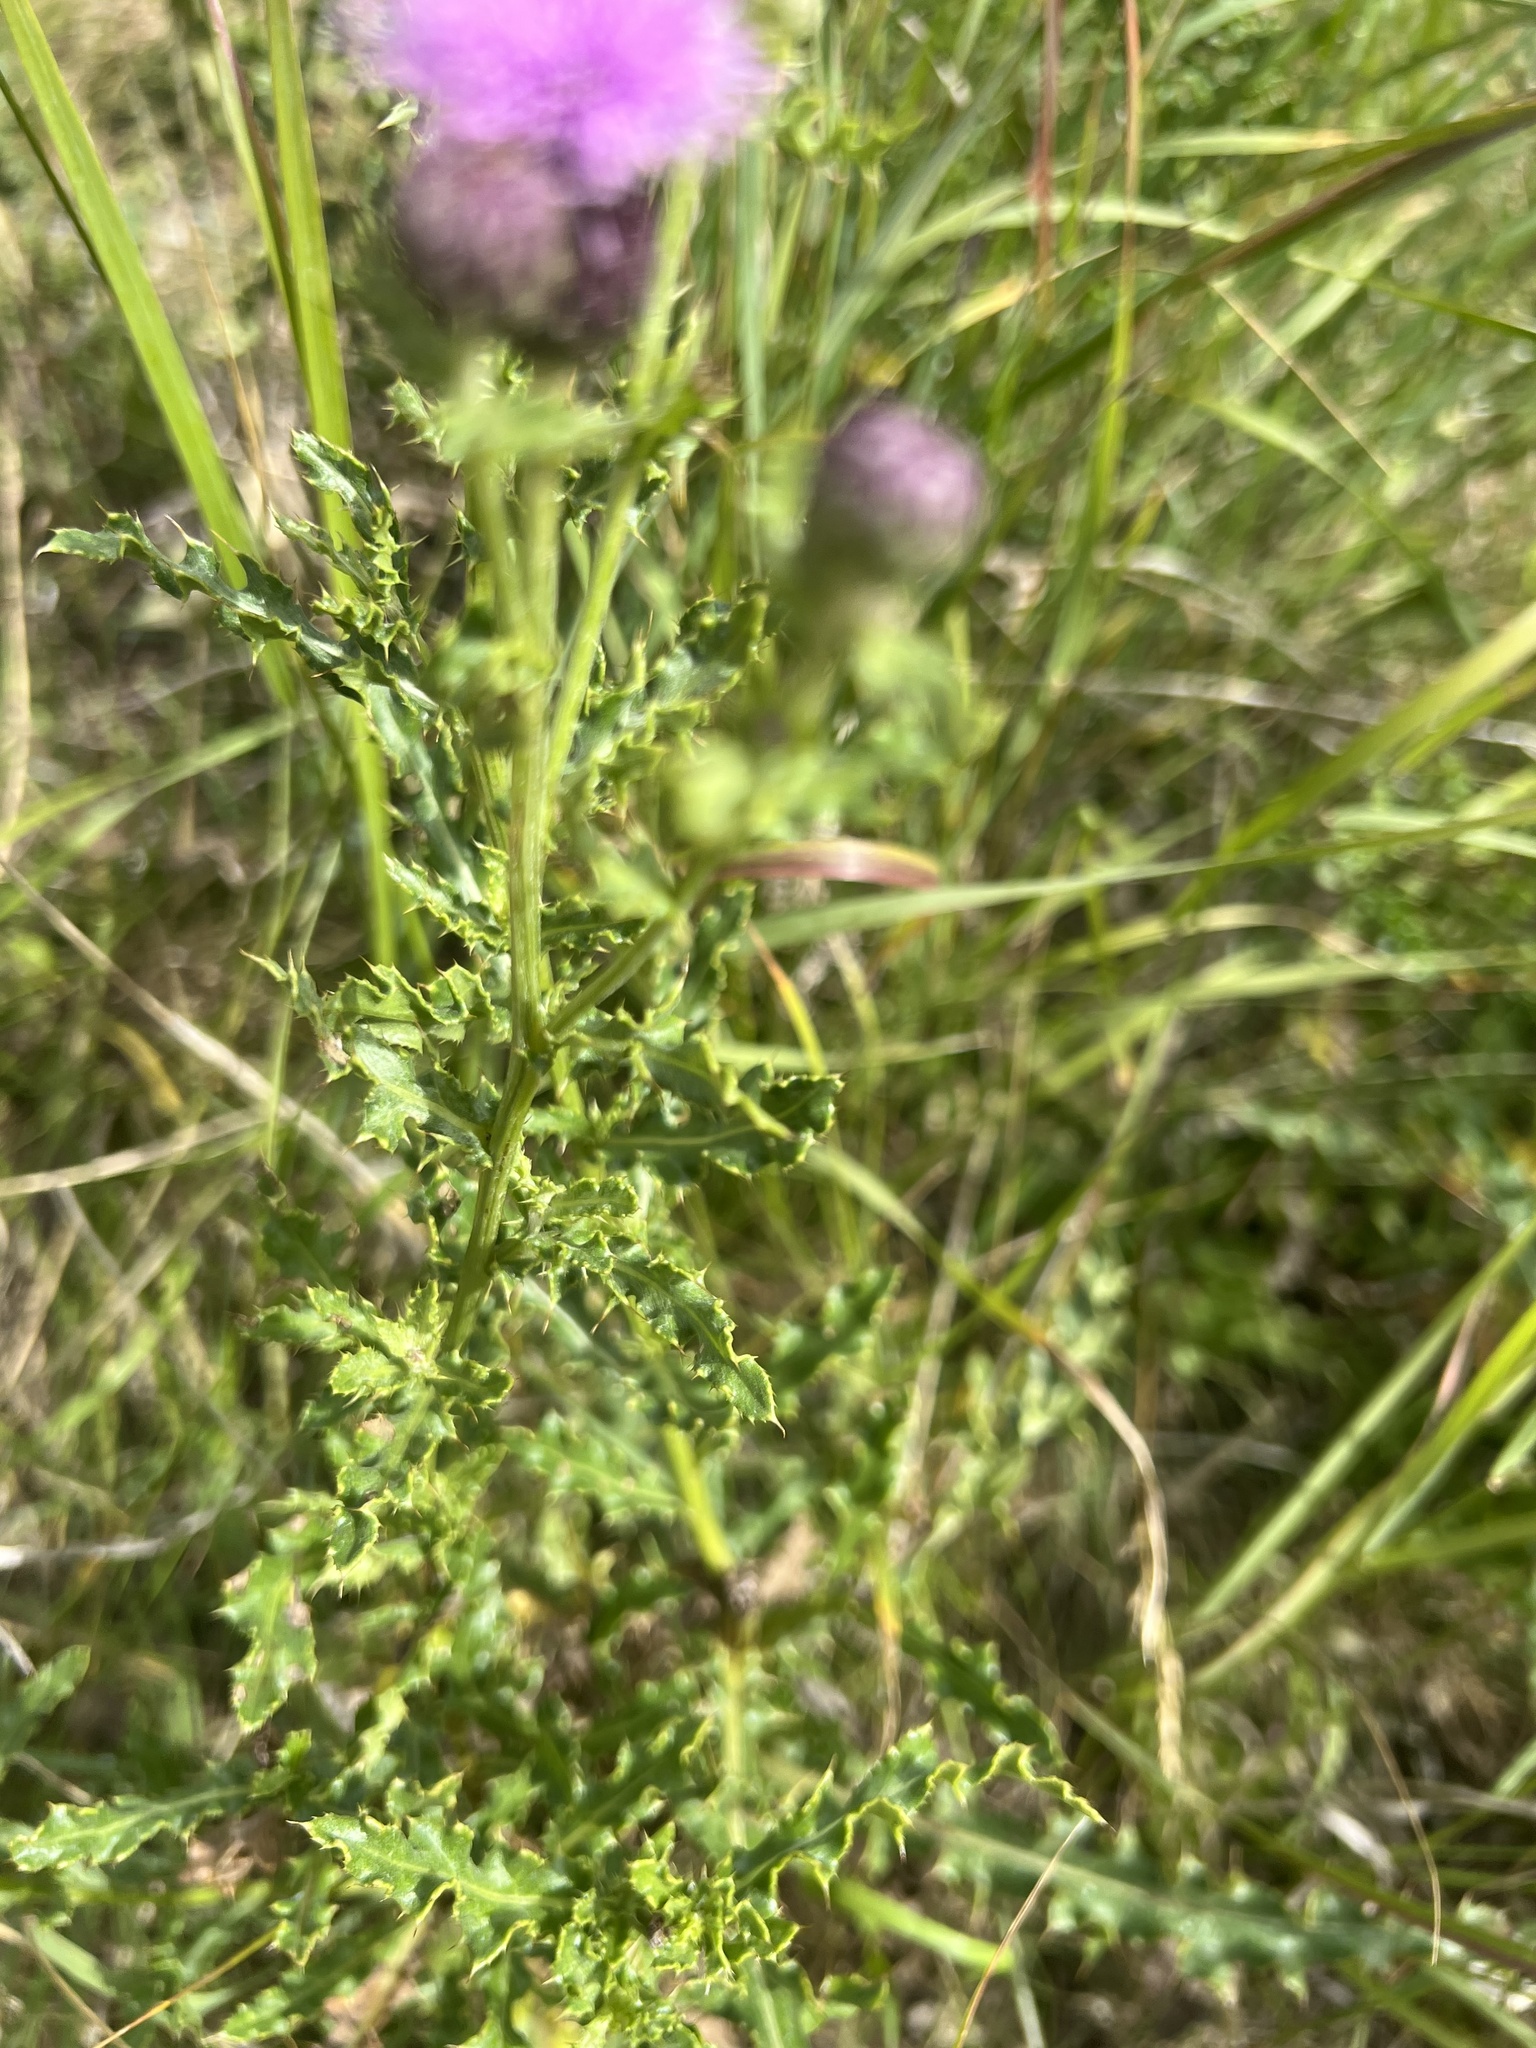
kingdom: Plantae
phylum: Tracheophyta
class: Magnoliopsida
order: Asterales
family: Asteraceae
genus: Cirsium
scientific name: Cirsium arvense
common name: Creeping thistle
